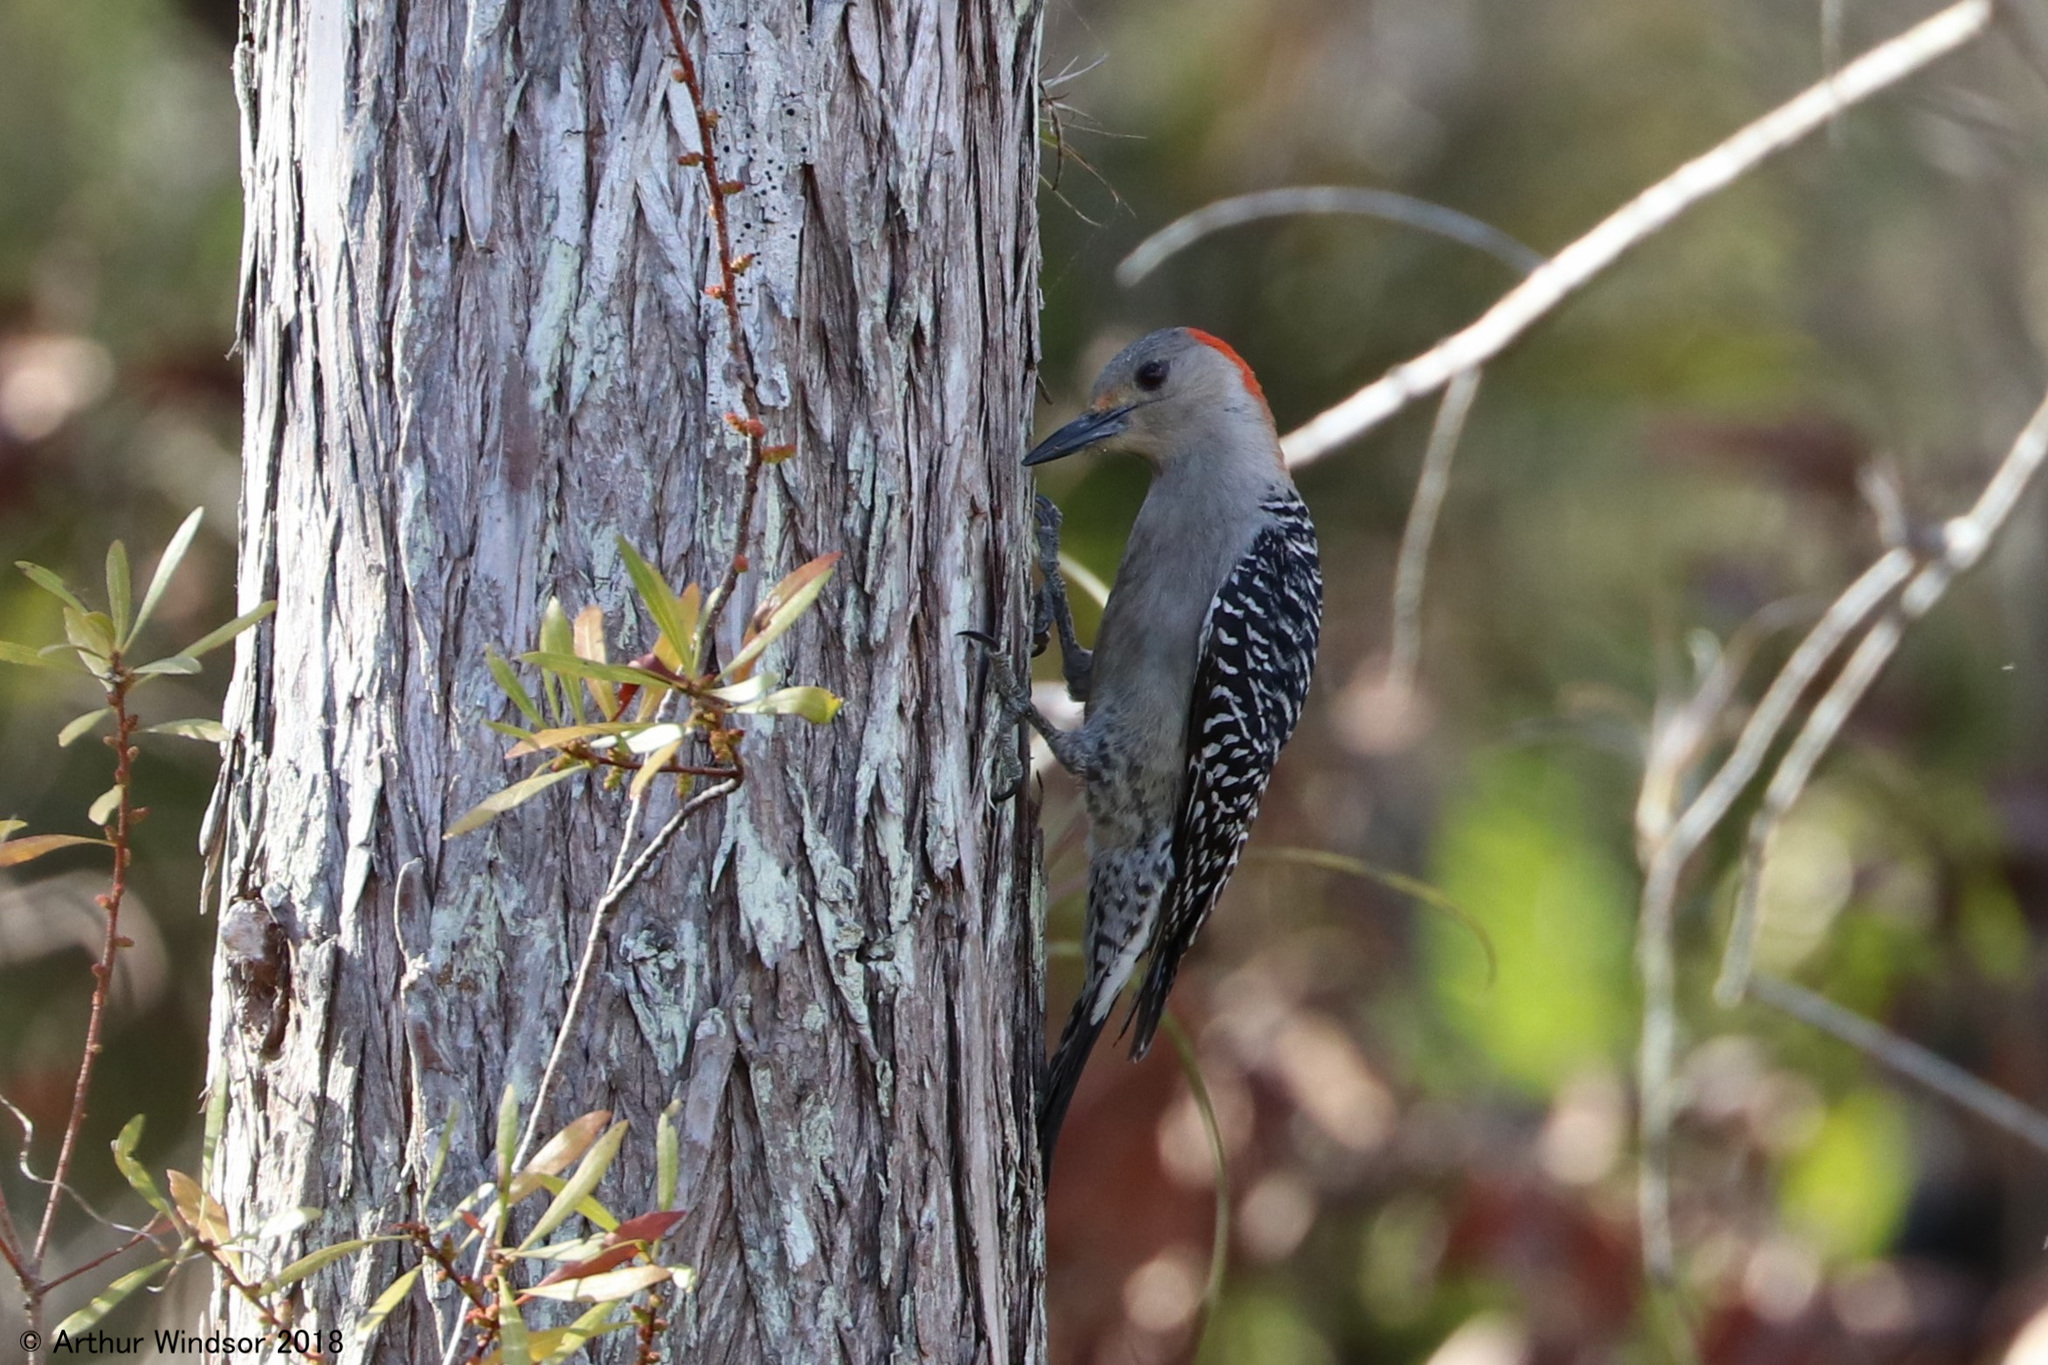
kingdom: Animalia
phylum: Chordata
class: Aves
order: Piciformes
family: Picidae
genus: Melanerpes
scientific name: Melanerpes carolinus
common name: Red-bellied woodpecker
